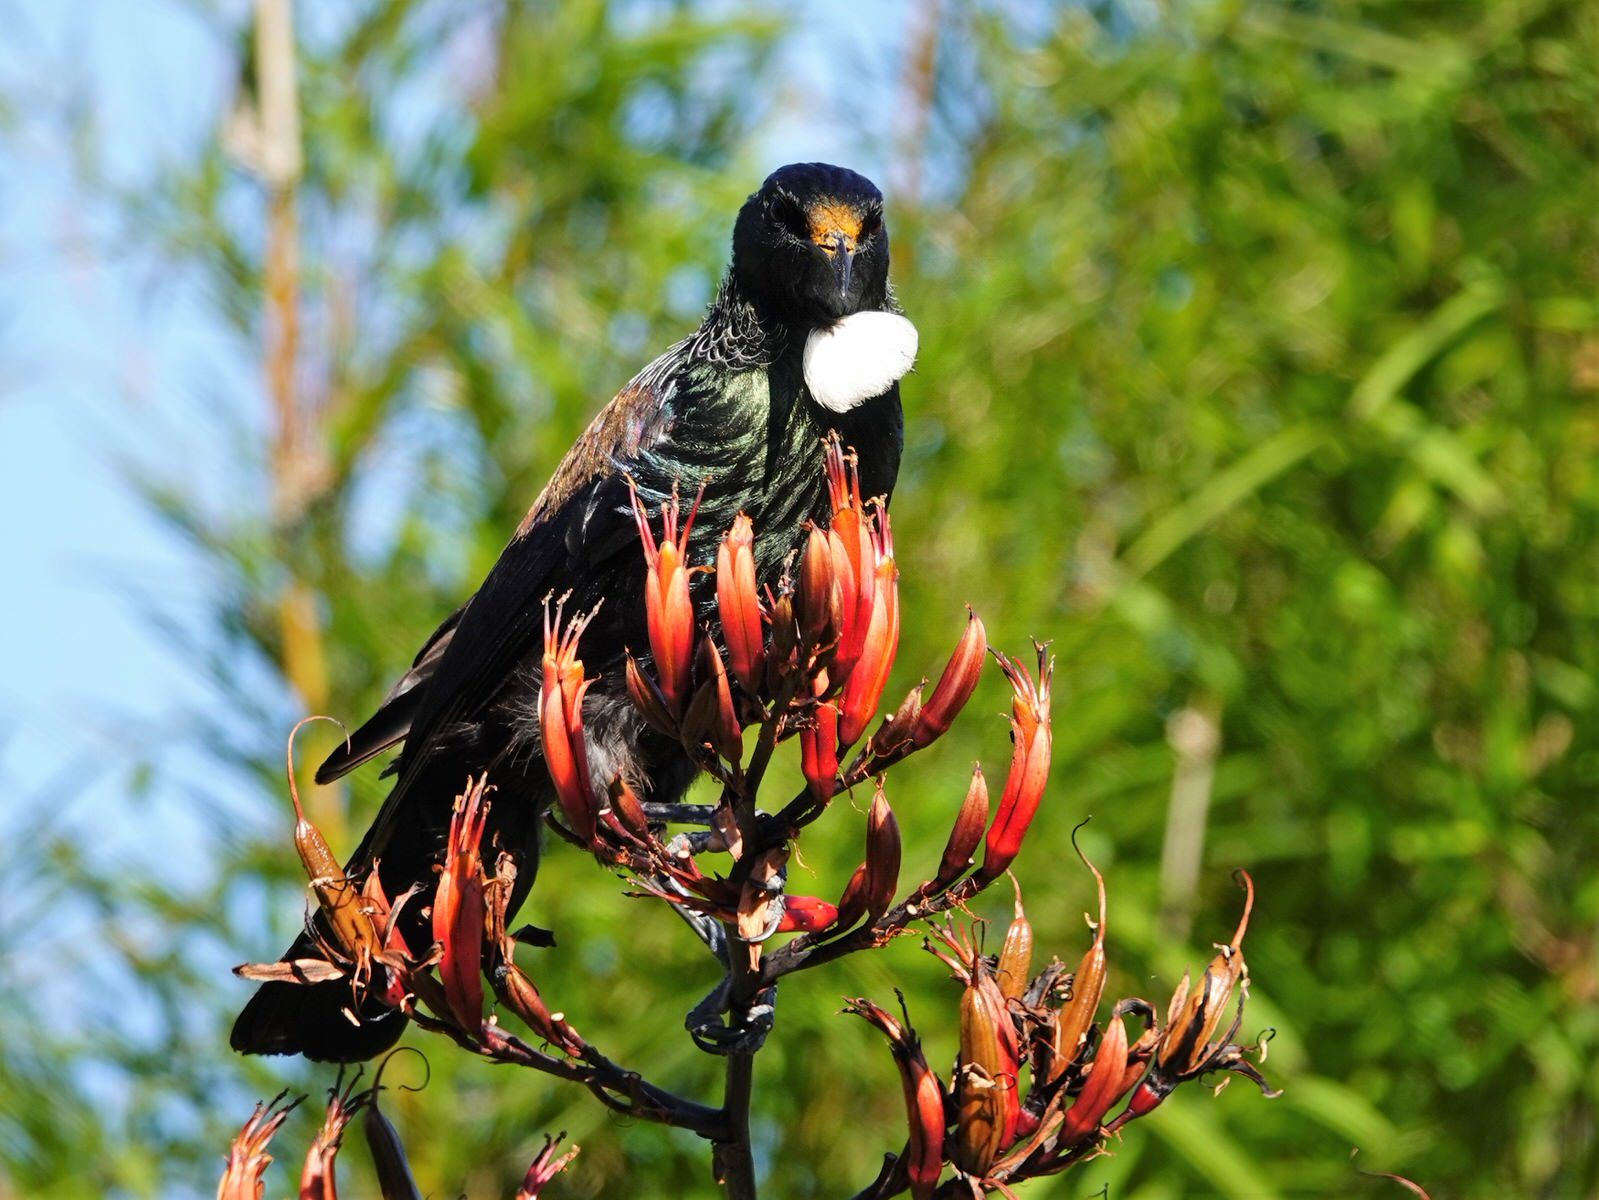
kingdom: Animalia
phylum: Chordata
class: Aves
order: Passeriformes
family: Meliphagidae
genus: Prosthemadera
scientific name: Prosthemadera novaeseelandiae
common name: Tui
